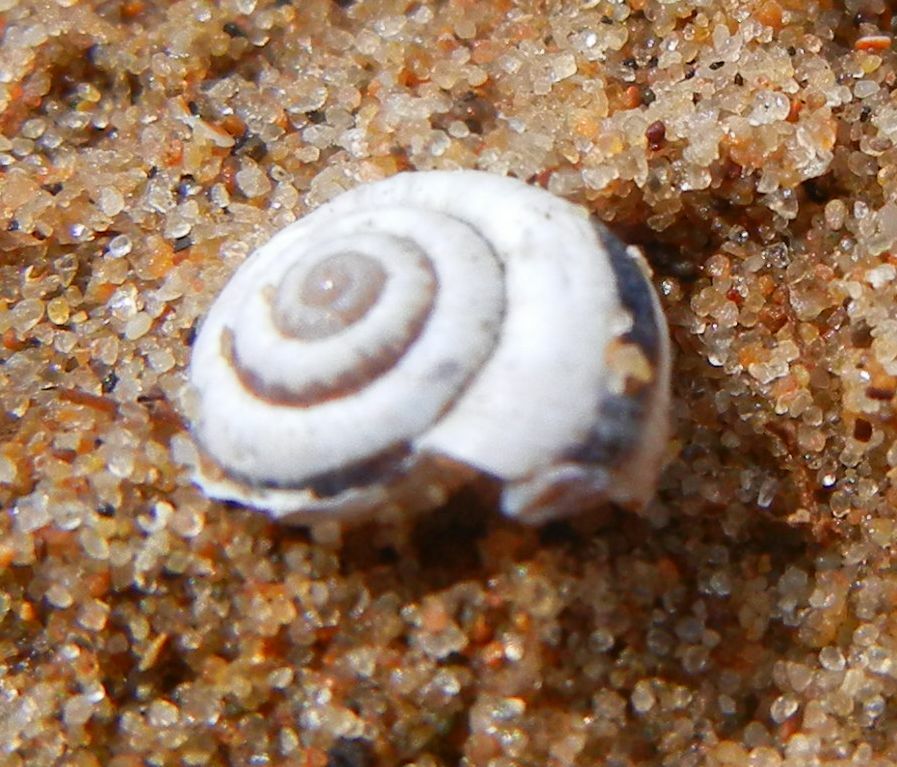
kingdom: Animalia
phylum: Mollusca
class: Gastropoda
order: Stylommatophora
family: Geomitridae
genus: Cernuella
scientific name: Cernuella virgata
